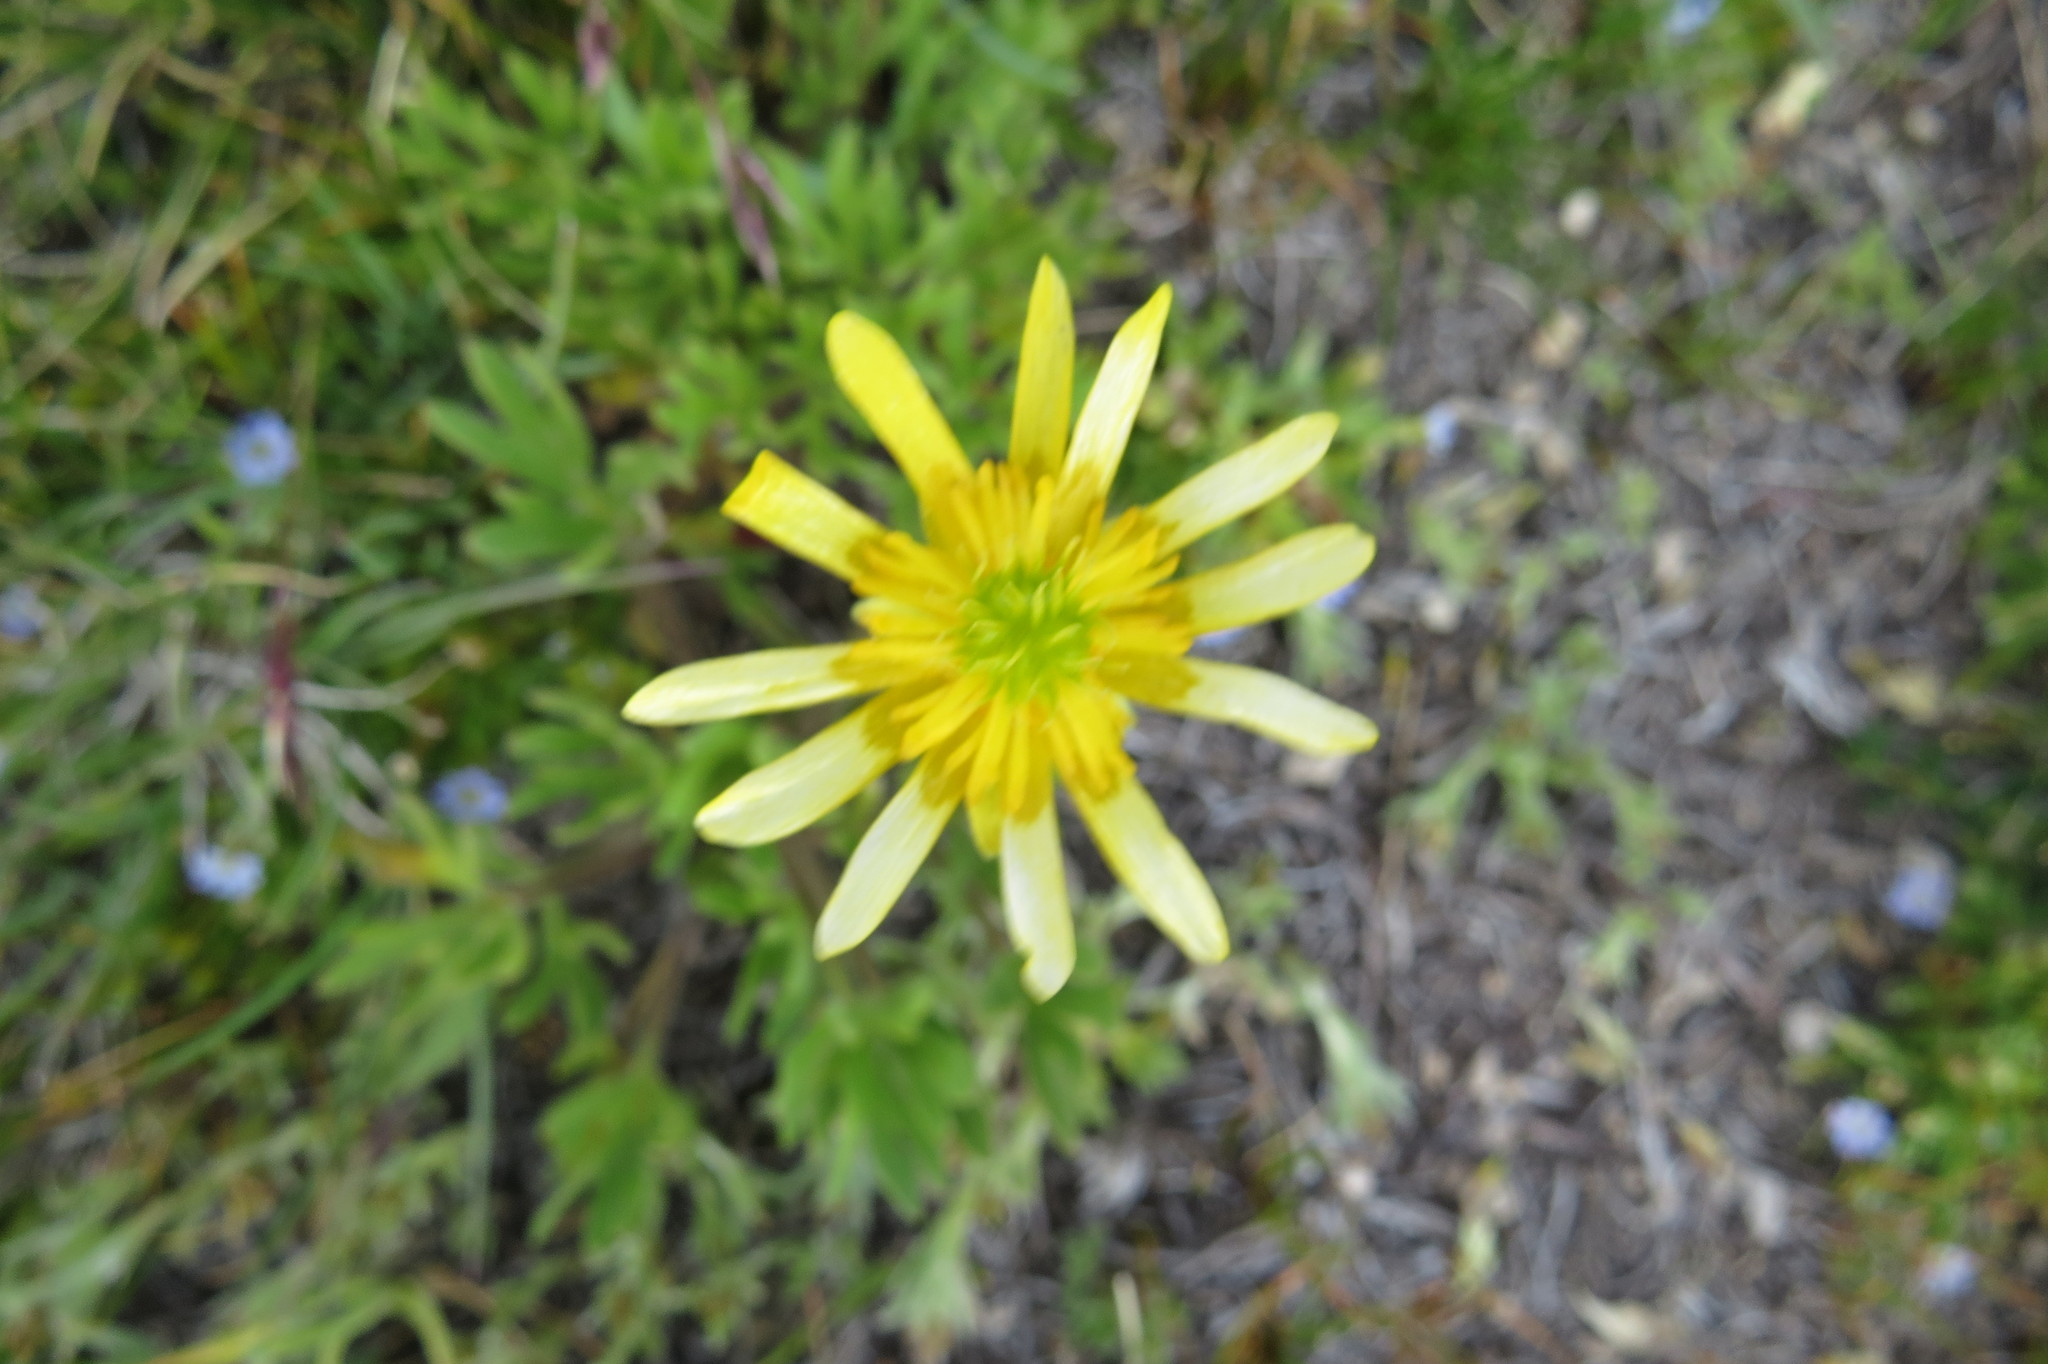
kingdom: Plantae
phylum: Tracheophyta
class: Magnoliopsida
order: Ranunculales
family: Ranunculaceae
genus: Ranunculus
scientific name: Ranunculus peduncularis
